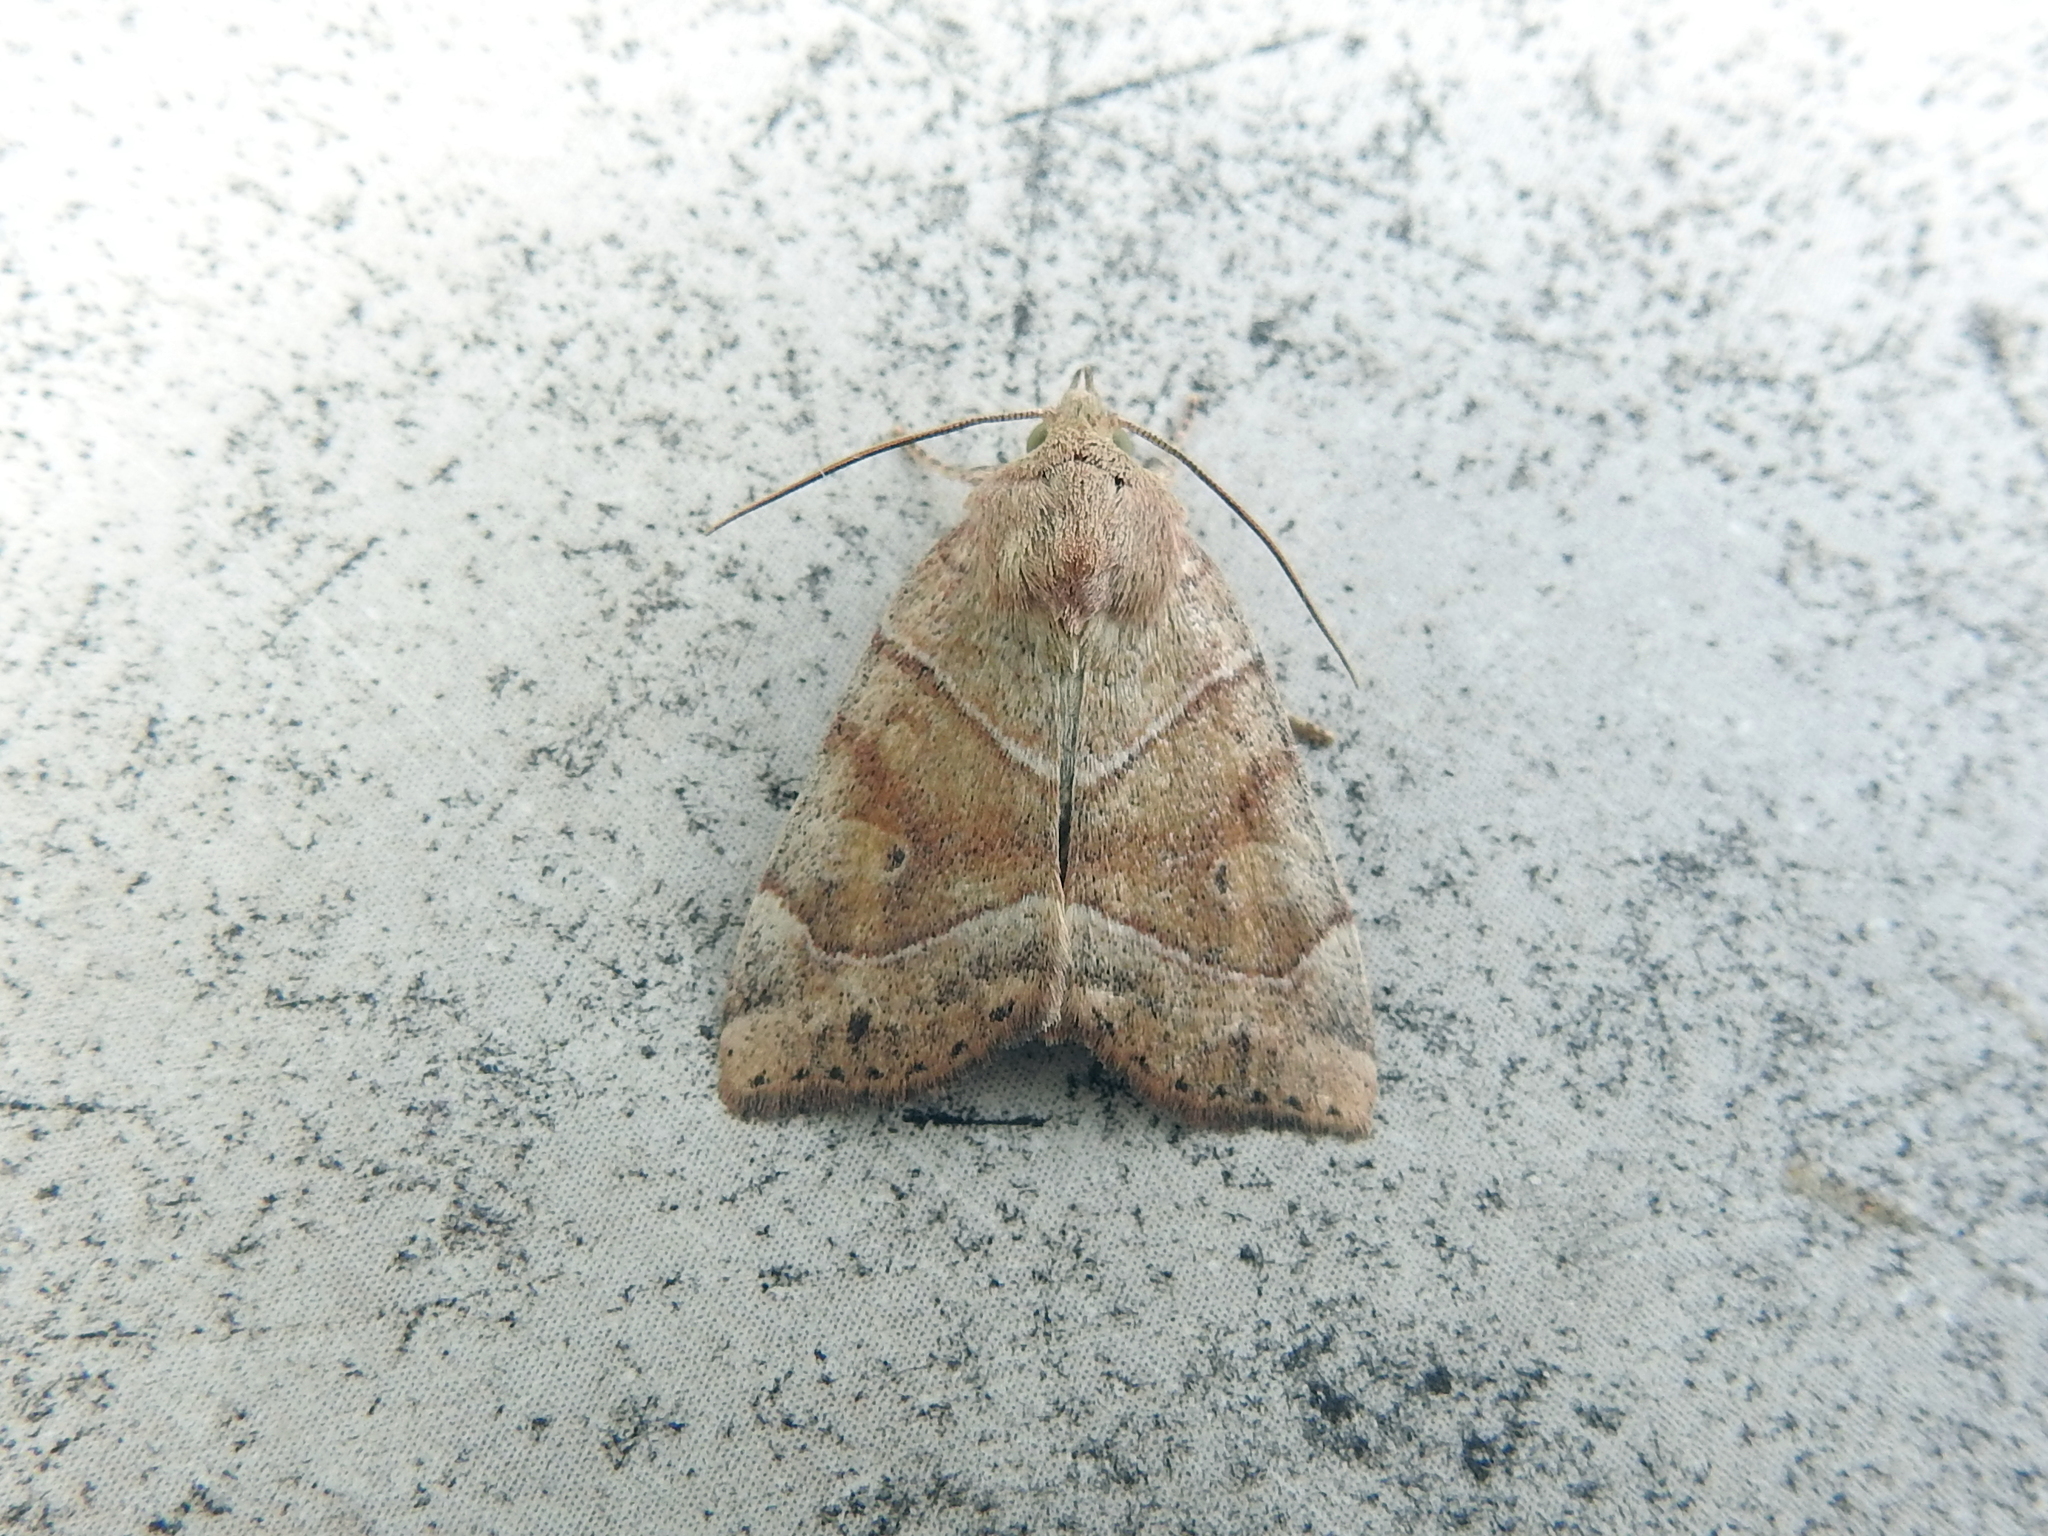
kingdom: Animalia
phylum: Arthropoda
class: Insecta
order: Lepidoptera
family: Noctuidae
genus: Cosmia
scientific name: Cosmia trapezina
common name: Dun-bar
